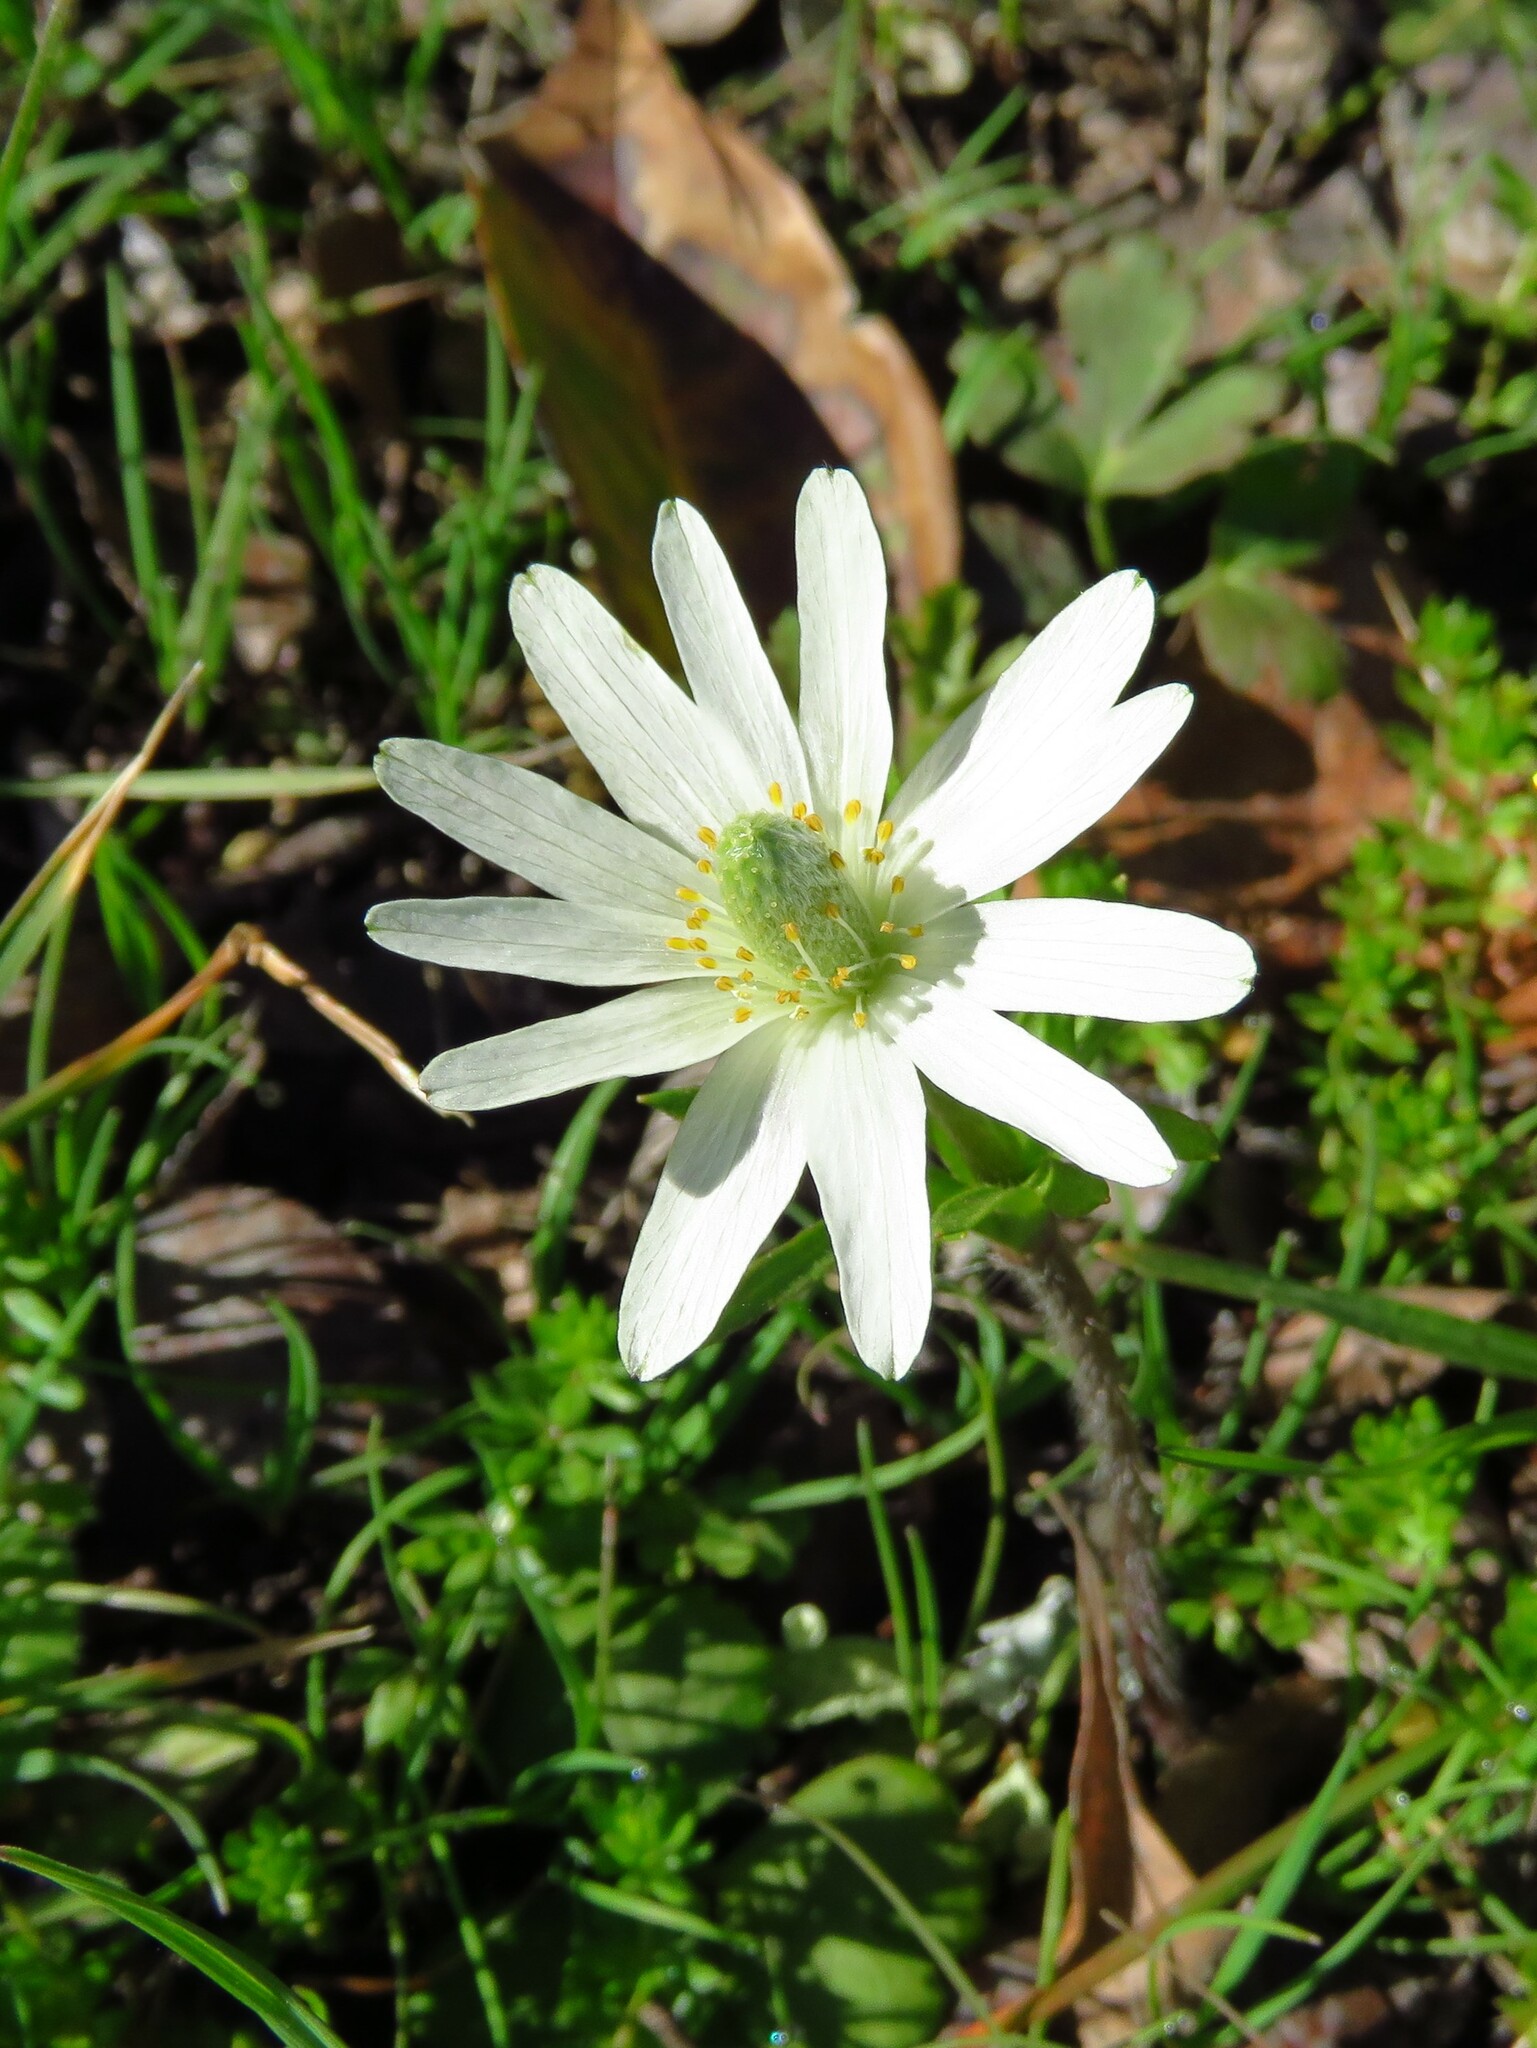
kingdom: Plantae
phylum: Tracheophyta
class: Magnoliopsida
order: Ranunculales
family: Ranunculaceae
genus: Anemone
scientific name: Anemone berlandieri
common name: Ten-petal anemone
